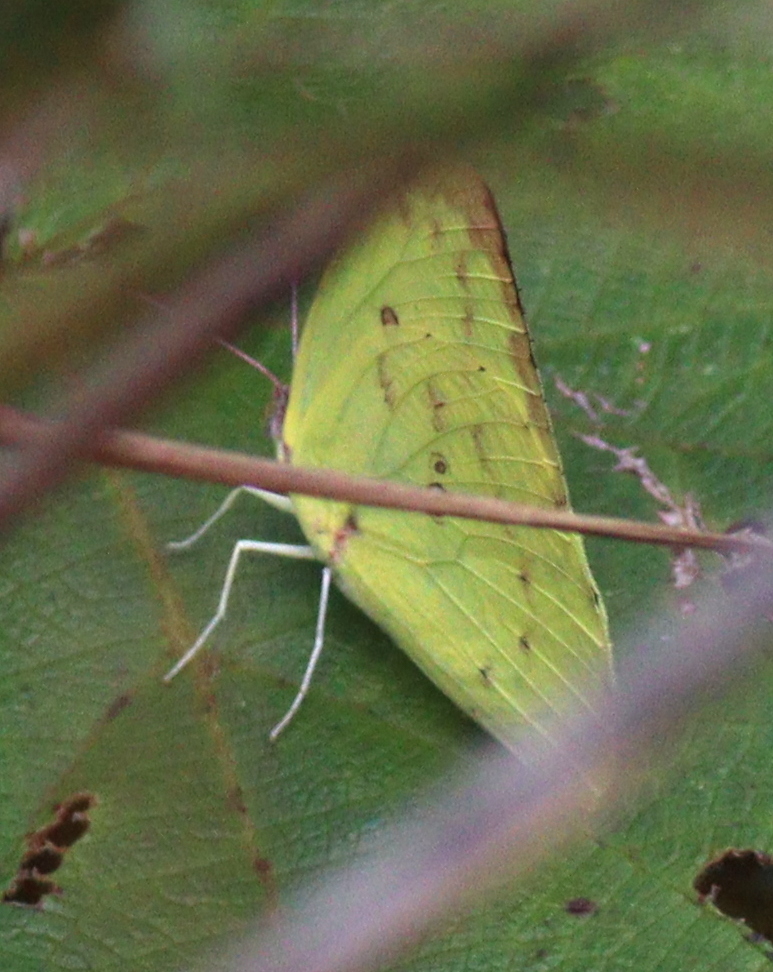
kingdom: Animalia
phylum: Arthropoda
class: Insecta
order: Lepidoptera
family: Pieridae
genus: Catopsilia
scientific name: Catopsilia pomona
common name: Common emigrant
